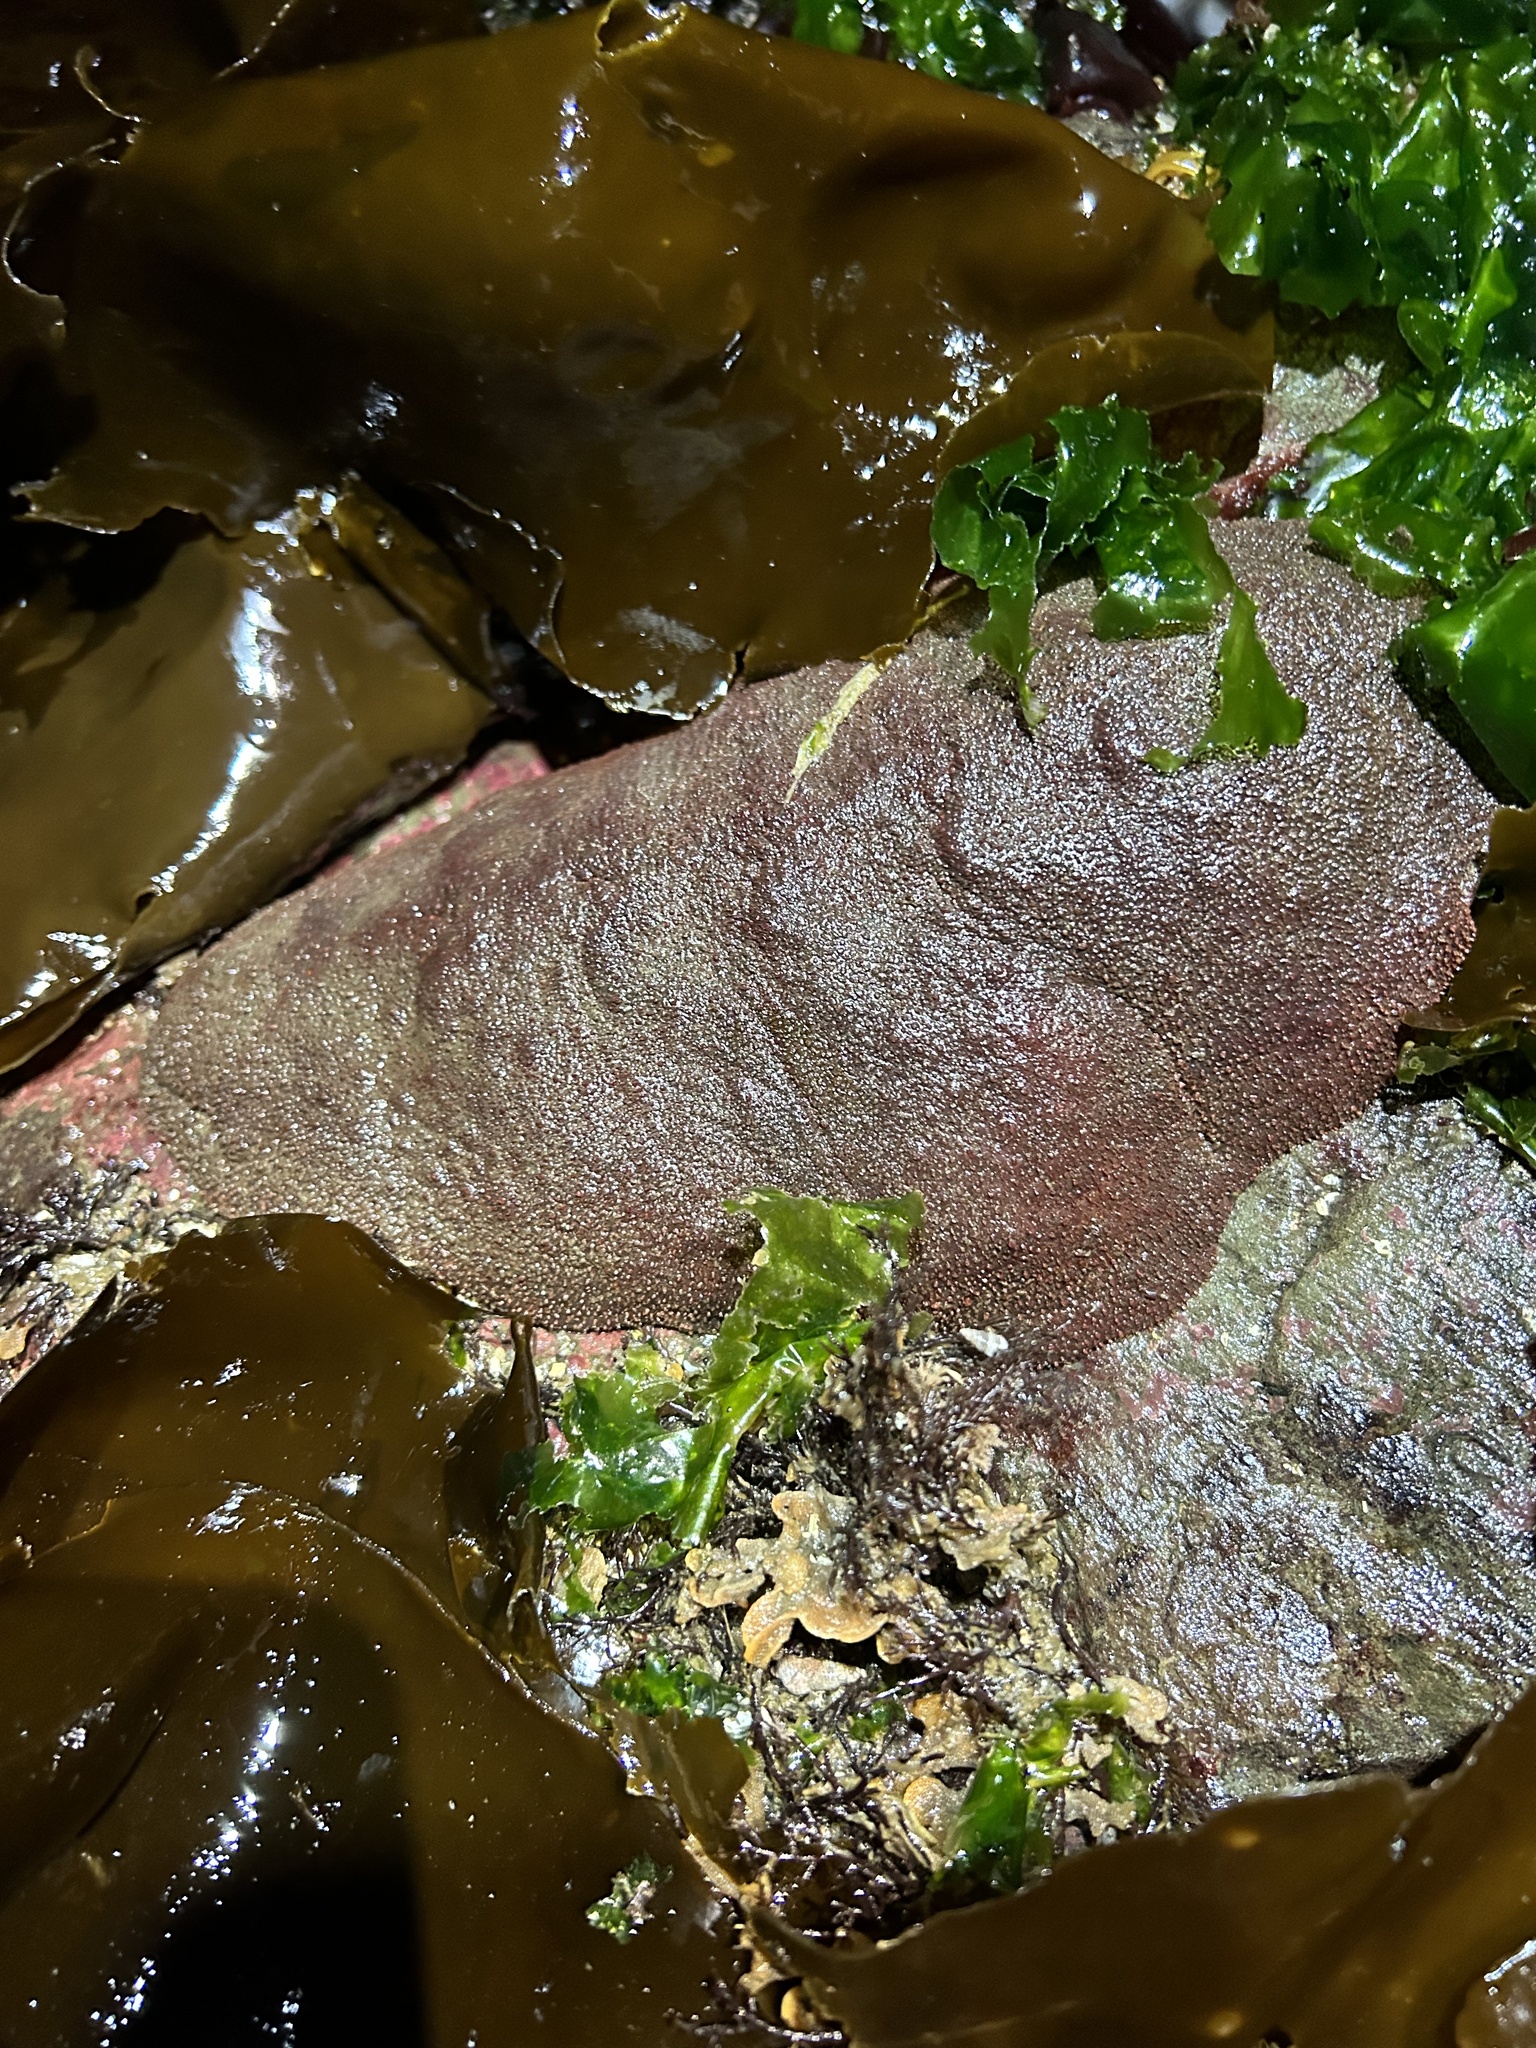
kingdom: Animalia
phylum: Mollusca
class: Polyplacophora
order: Chitonida
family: Acanthochitonidae
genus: Cryptochiton
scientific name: Cryptochiton stelleri
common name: Giant pacific chiton
